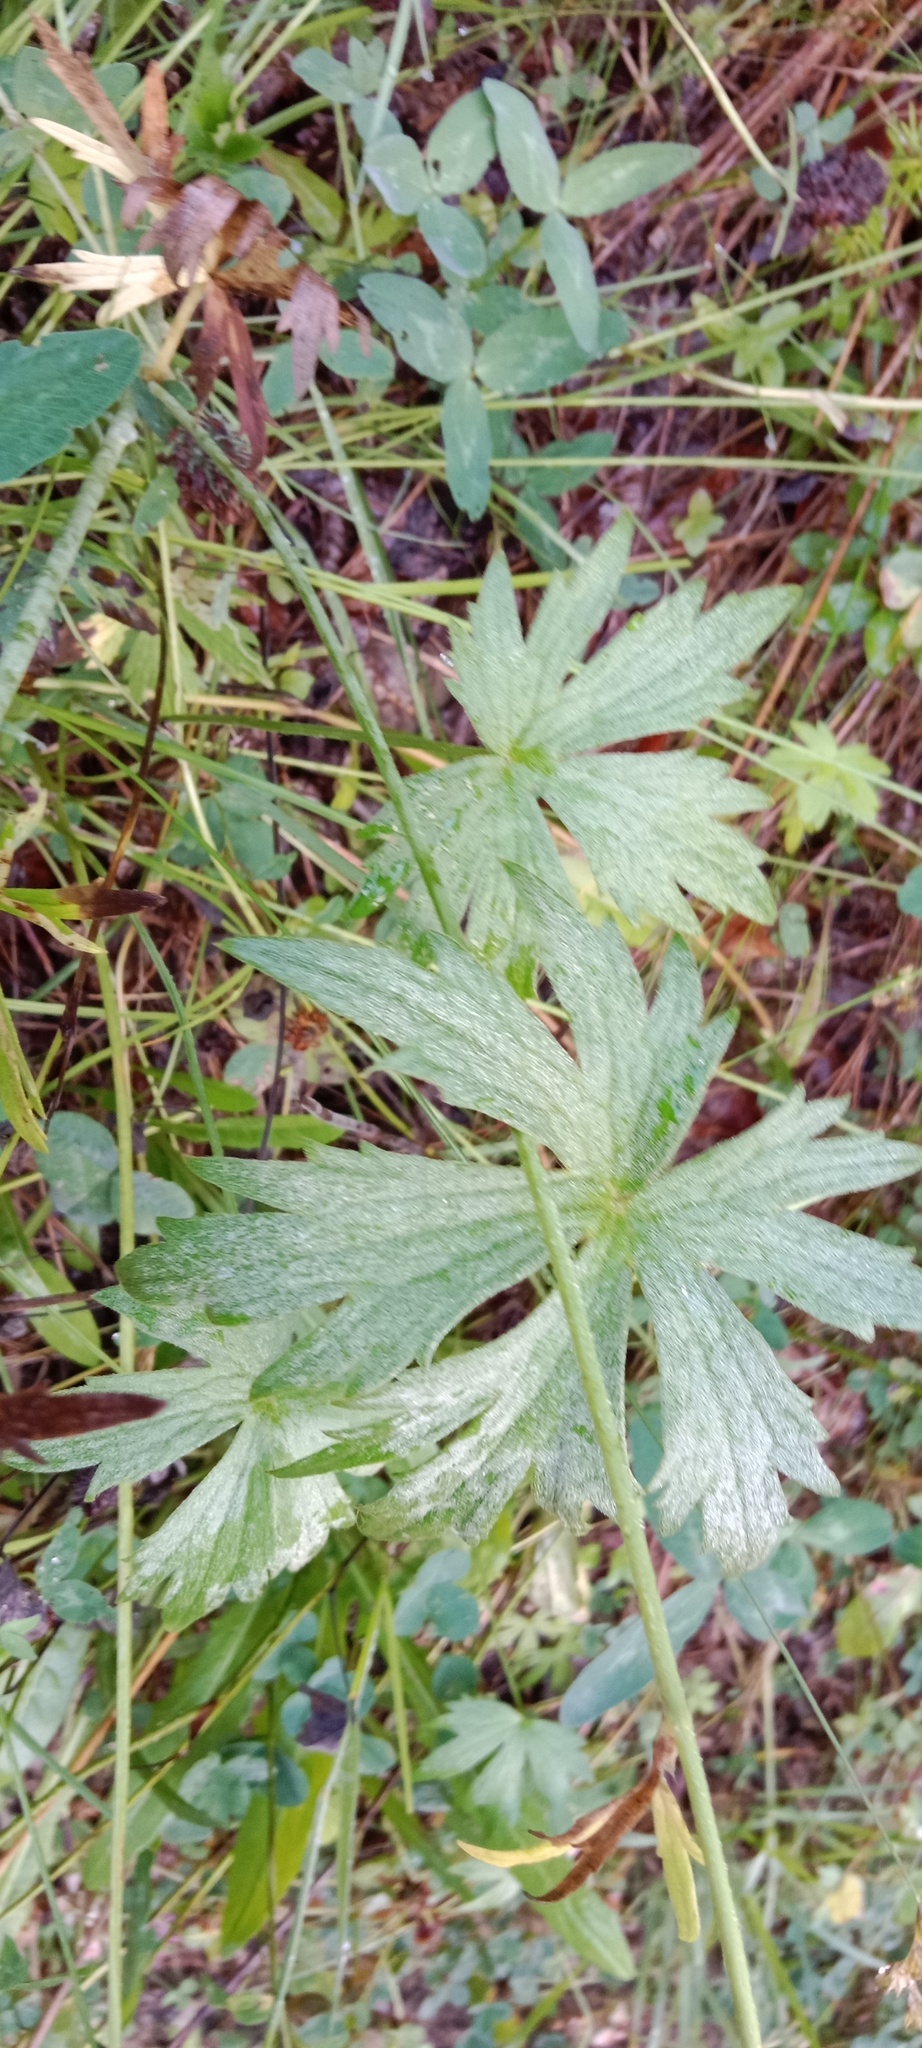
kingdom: Plantae
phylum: Tracheophyta
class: Magnoliopsida
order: Ranunculales
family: Ranunculaceae
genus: Ranunculus
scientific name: Ranunculus acris
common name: Meadow buttercup
